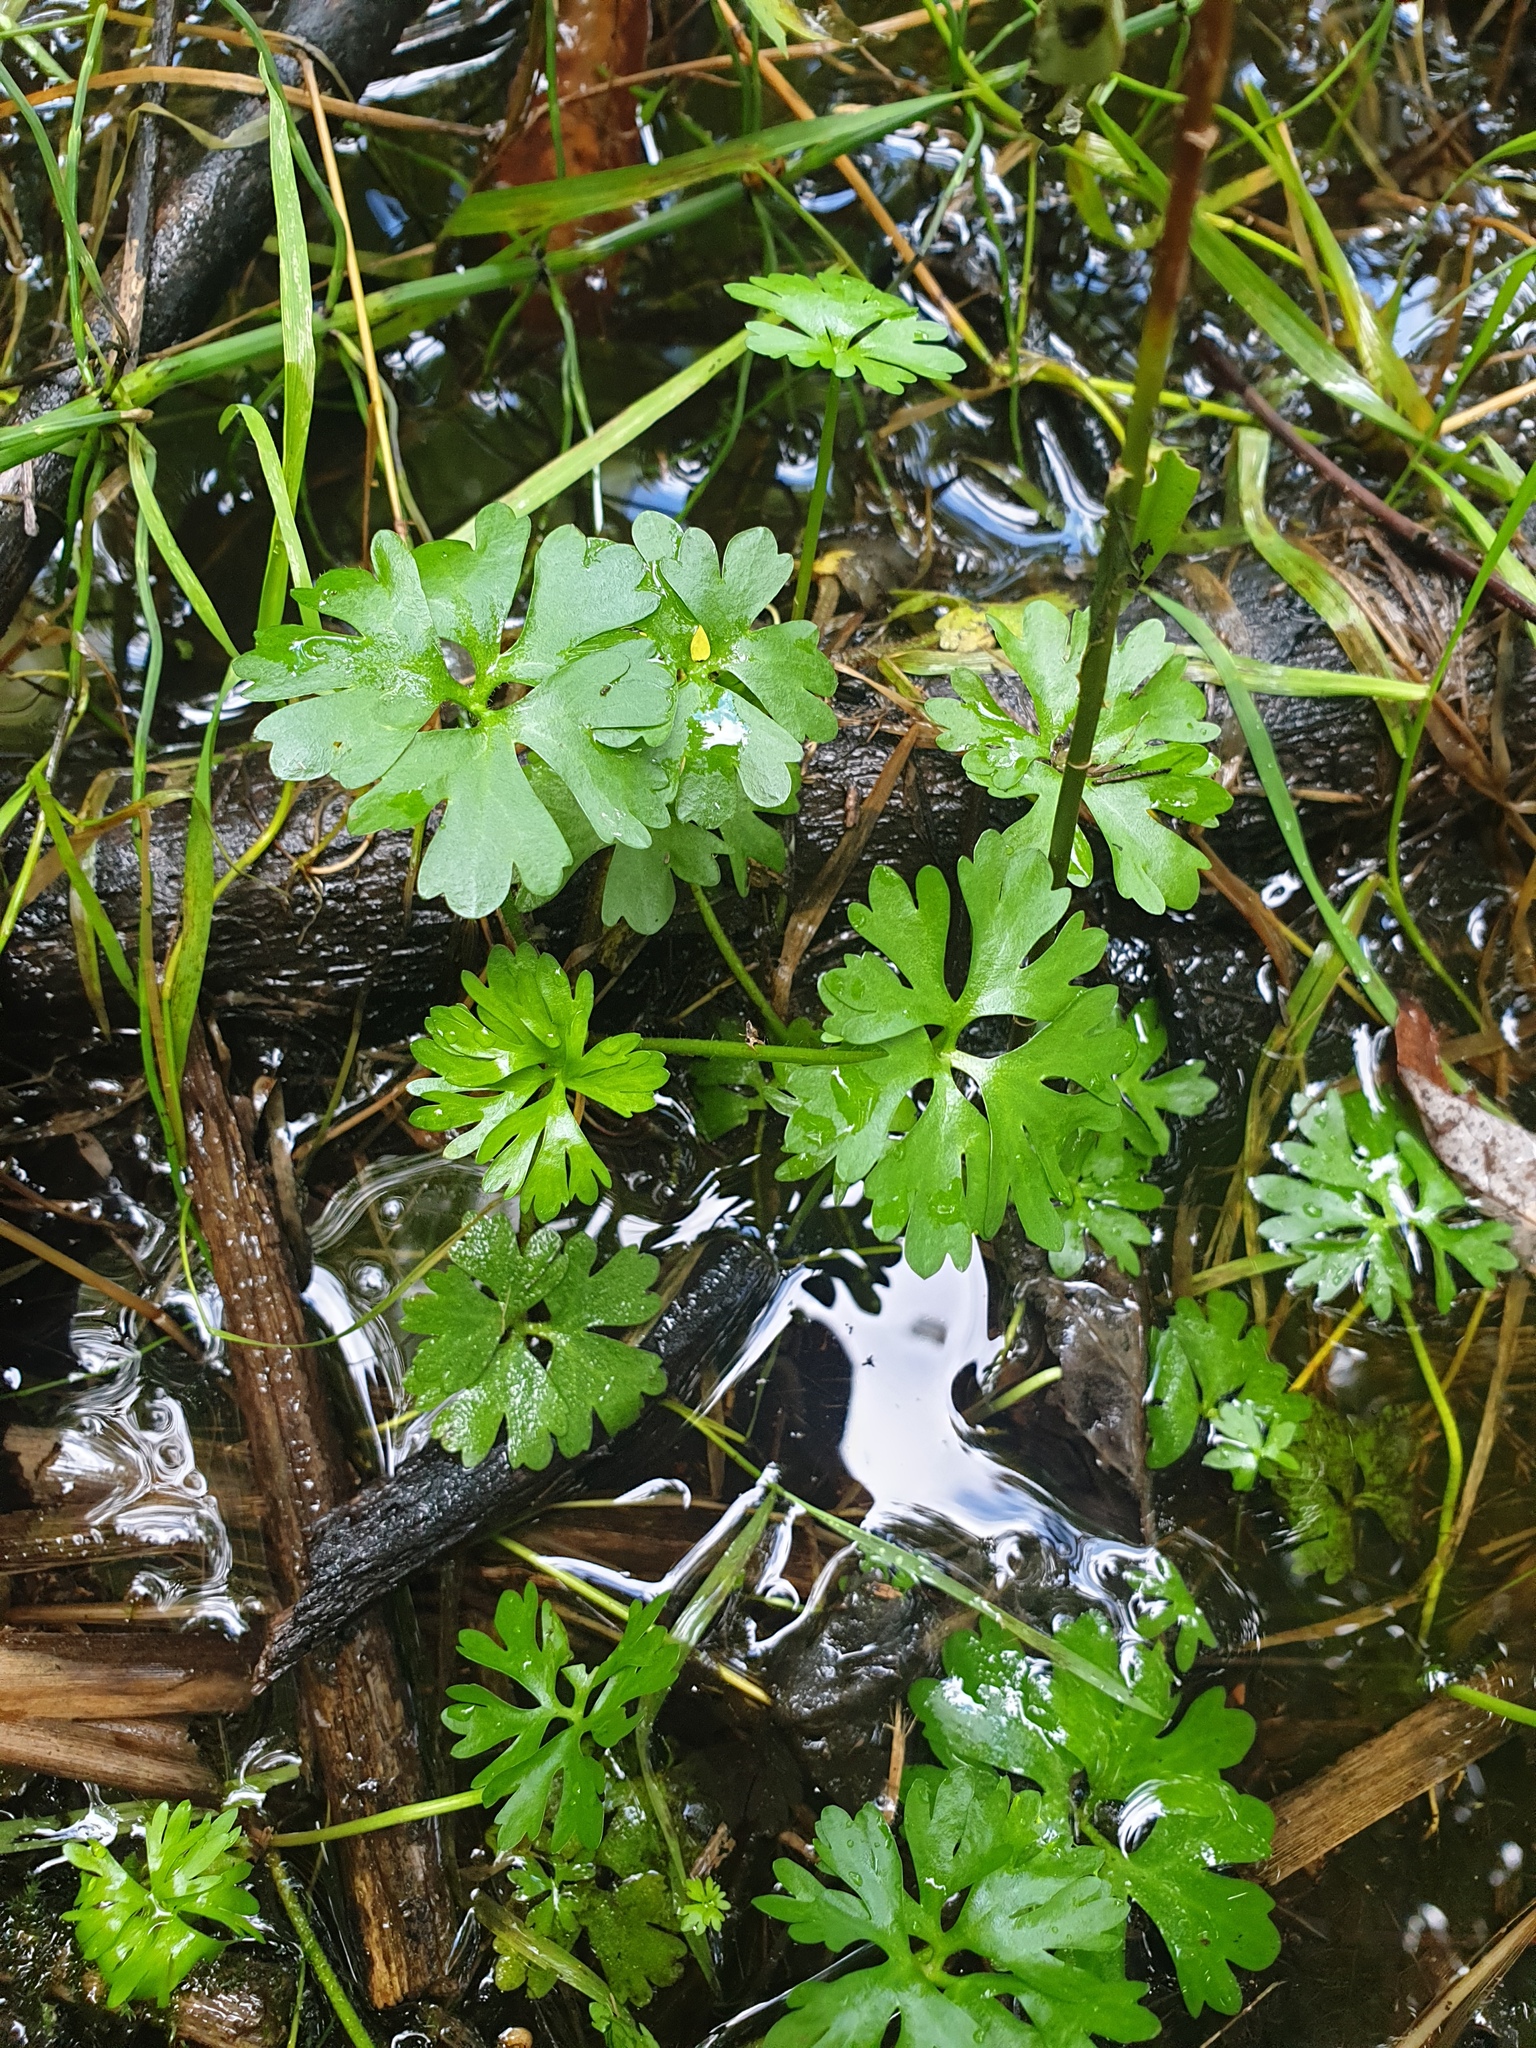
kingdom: Plantae
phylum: Tracheophyta
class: Magnoliopsida
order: Ranunculales
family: Ranunculaceae
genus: Ranunculus
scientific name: Ranunculus flabellaris
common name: Yellow water-crowfoot
